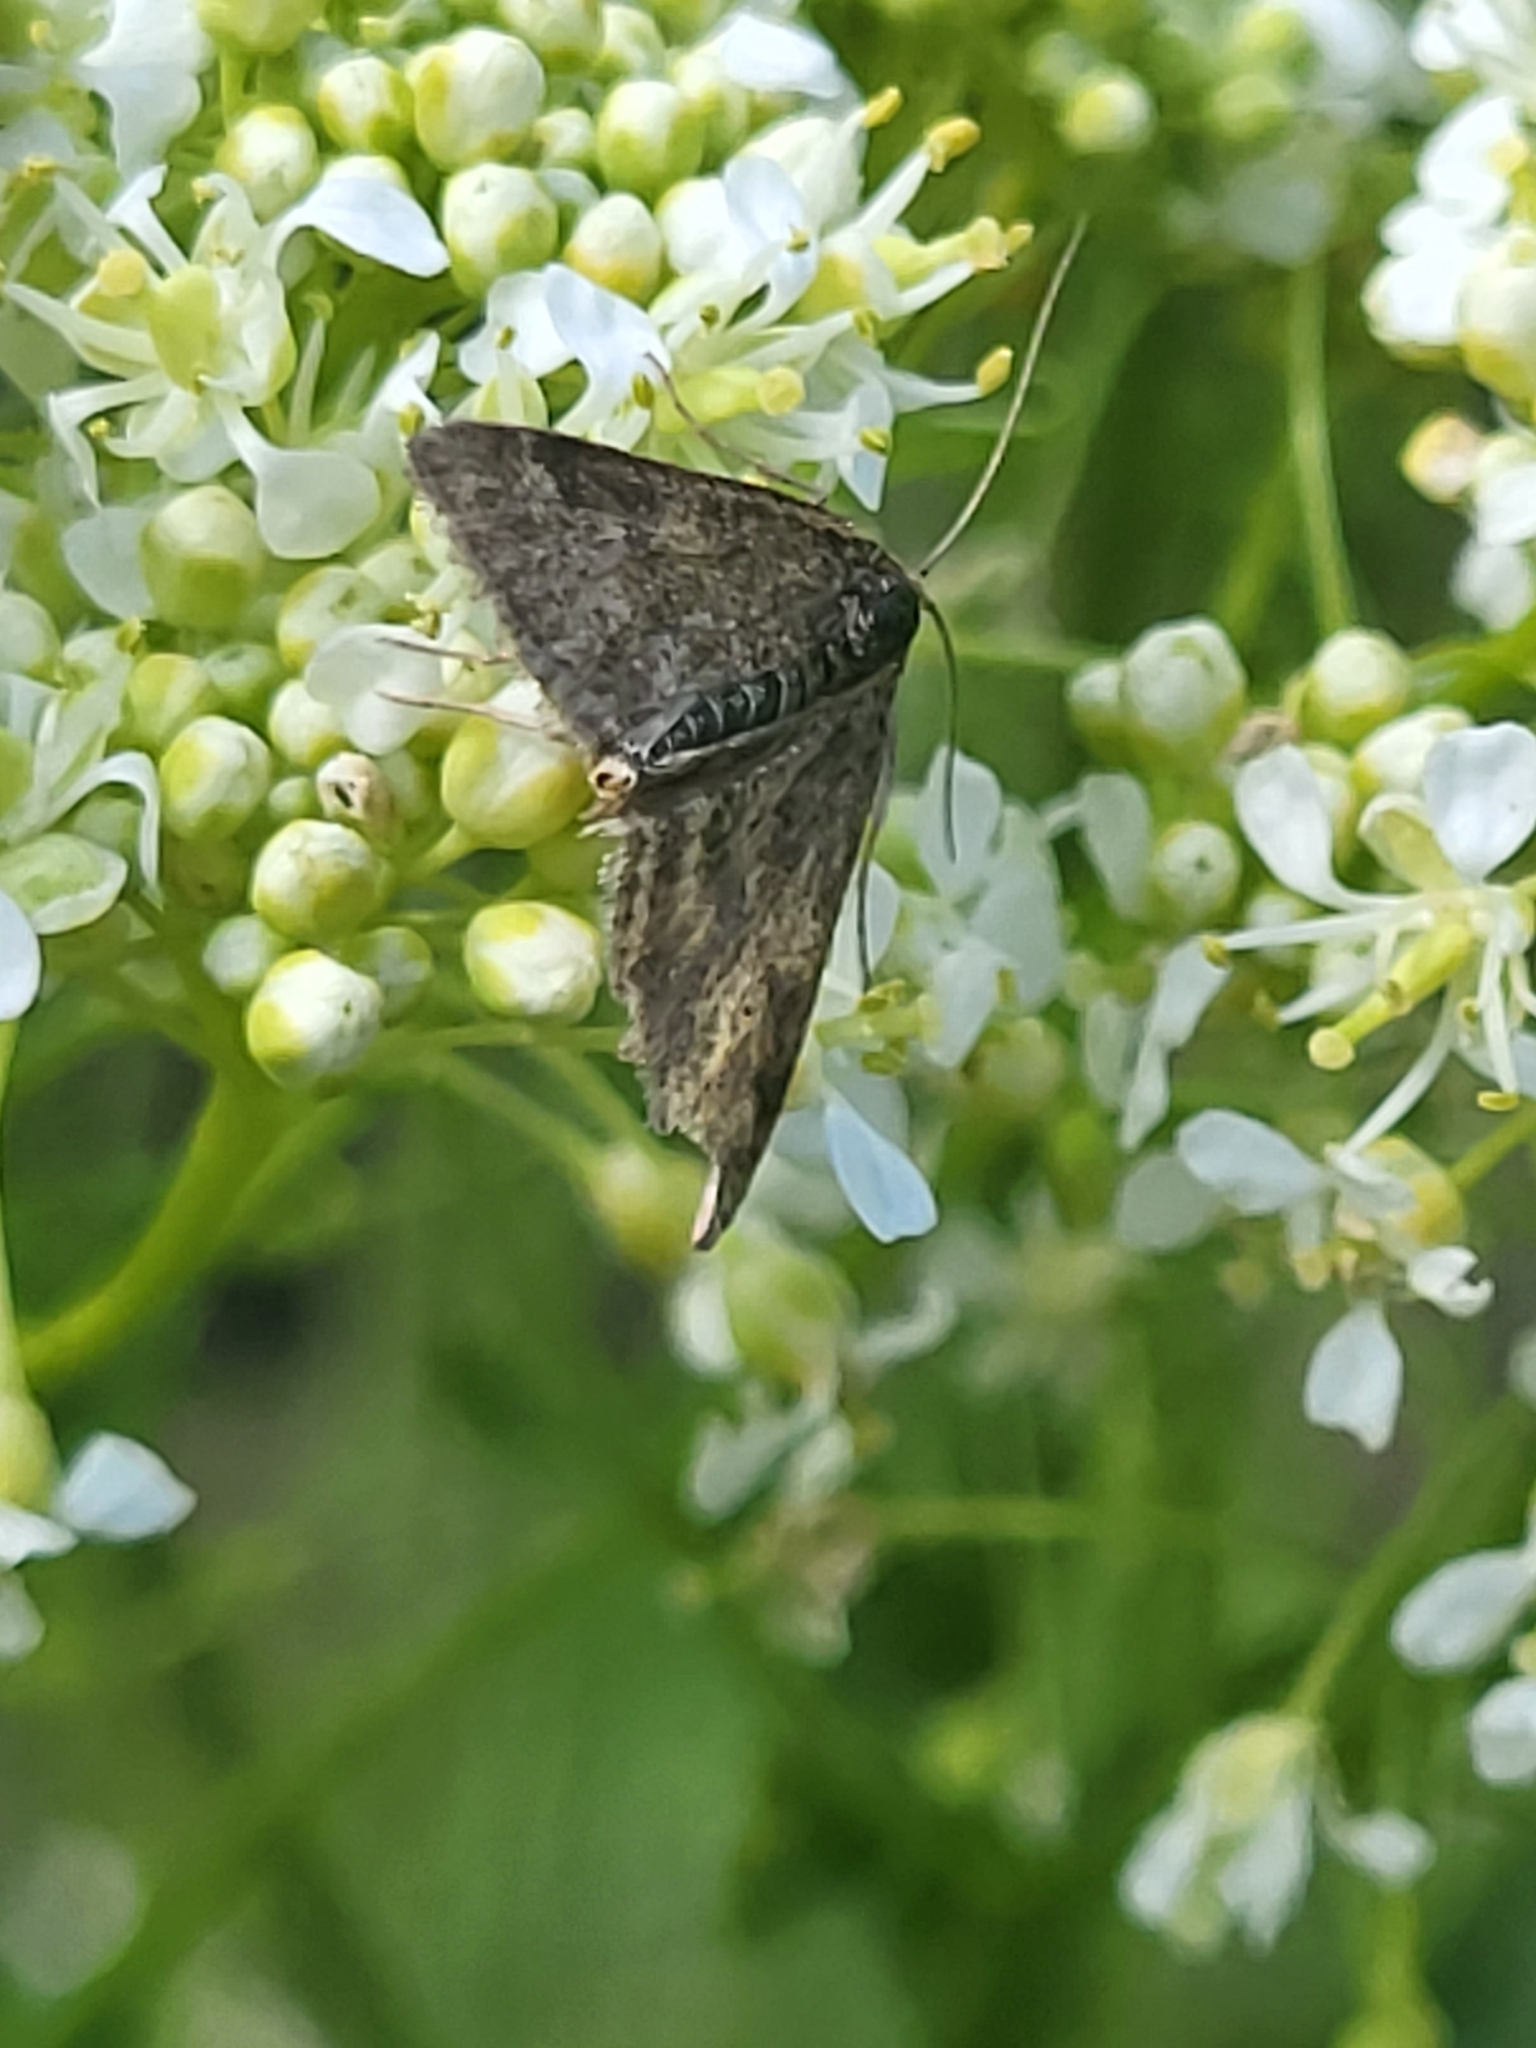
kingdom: Animalia
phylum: Arthropoda
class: Insecta
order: Lepidoptera
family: Crambidae
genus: Pyrausta
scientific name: Pyrausta despicata
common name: Straw-barred pearl
